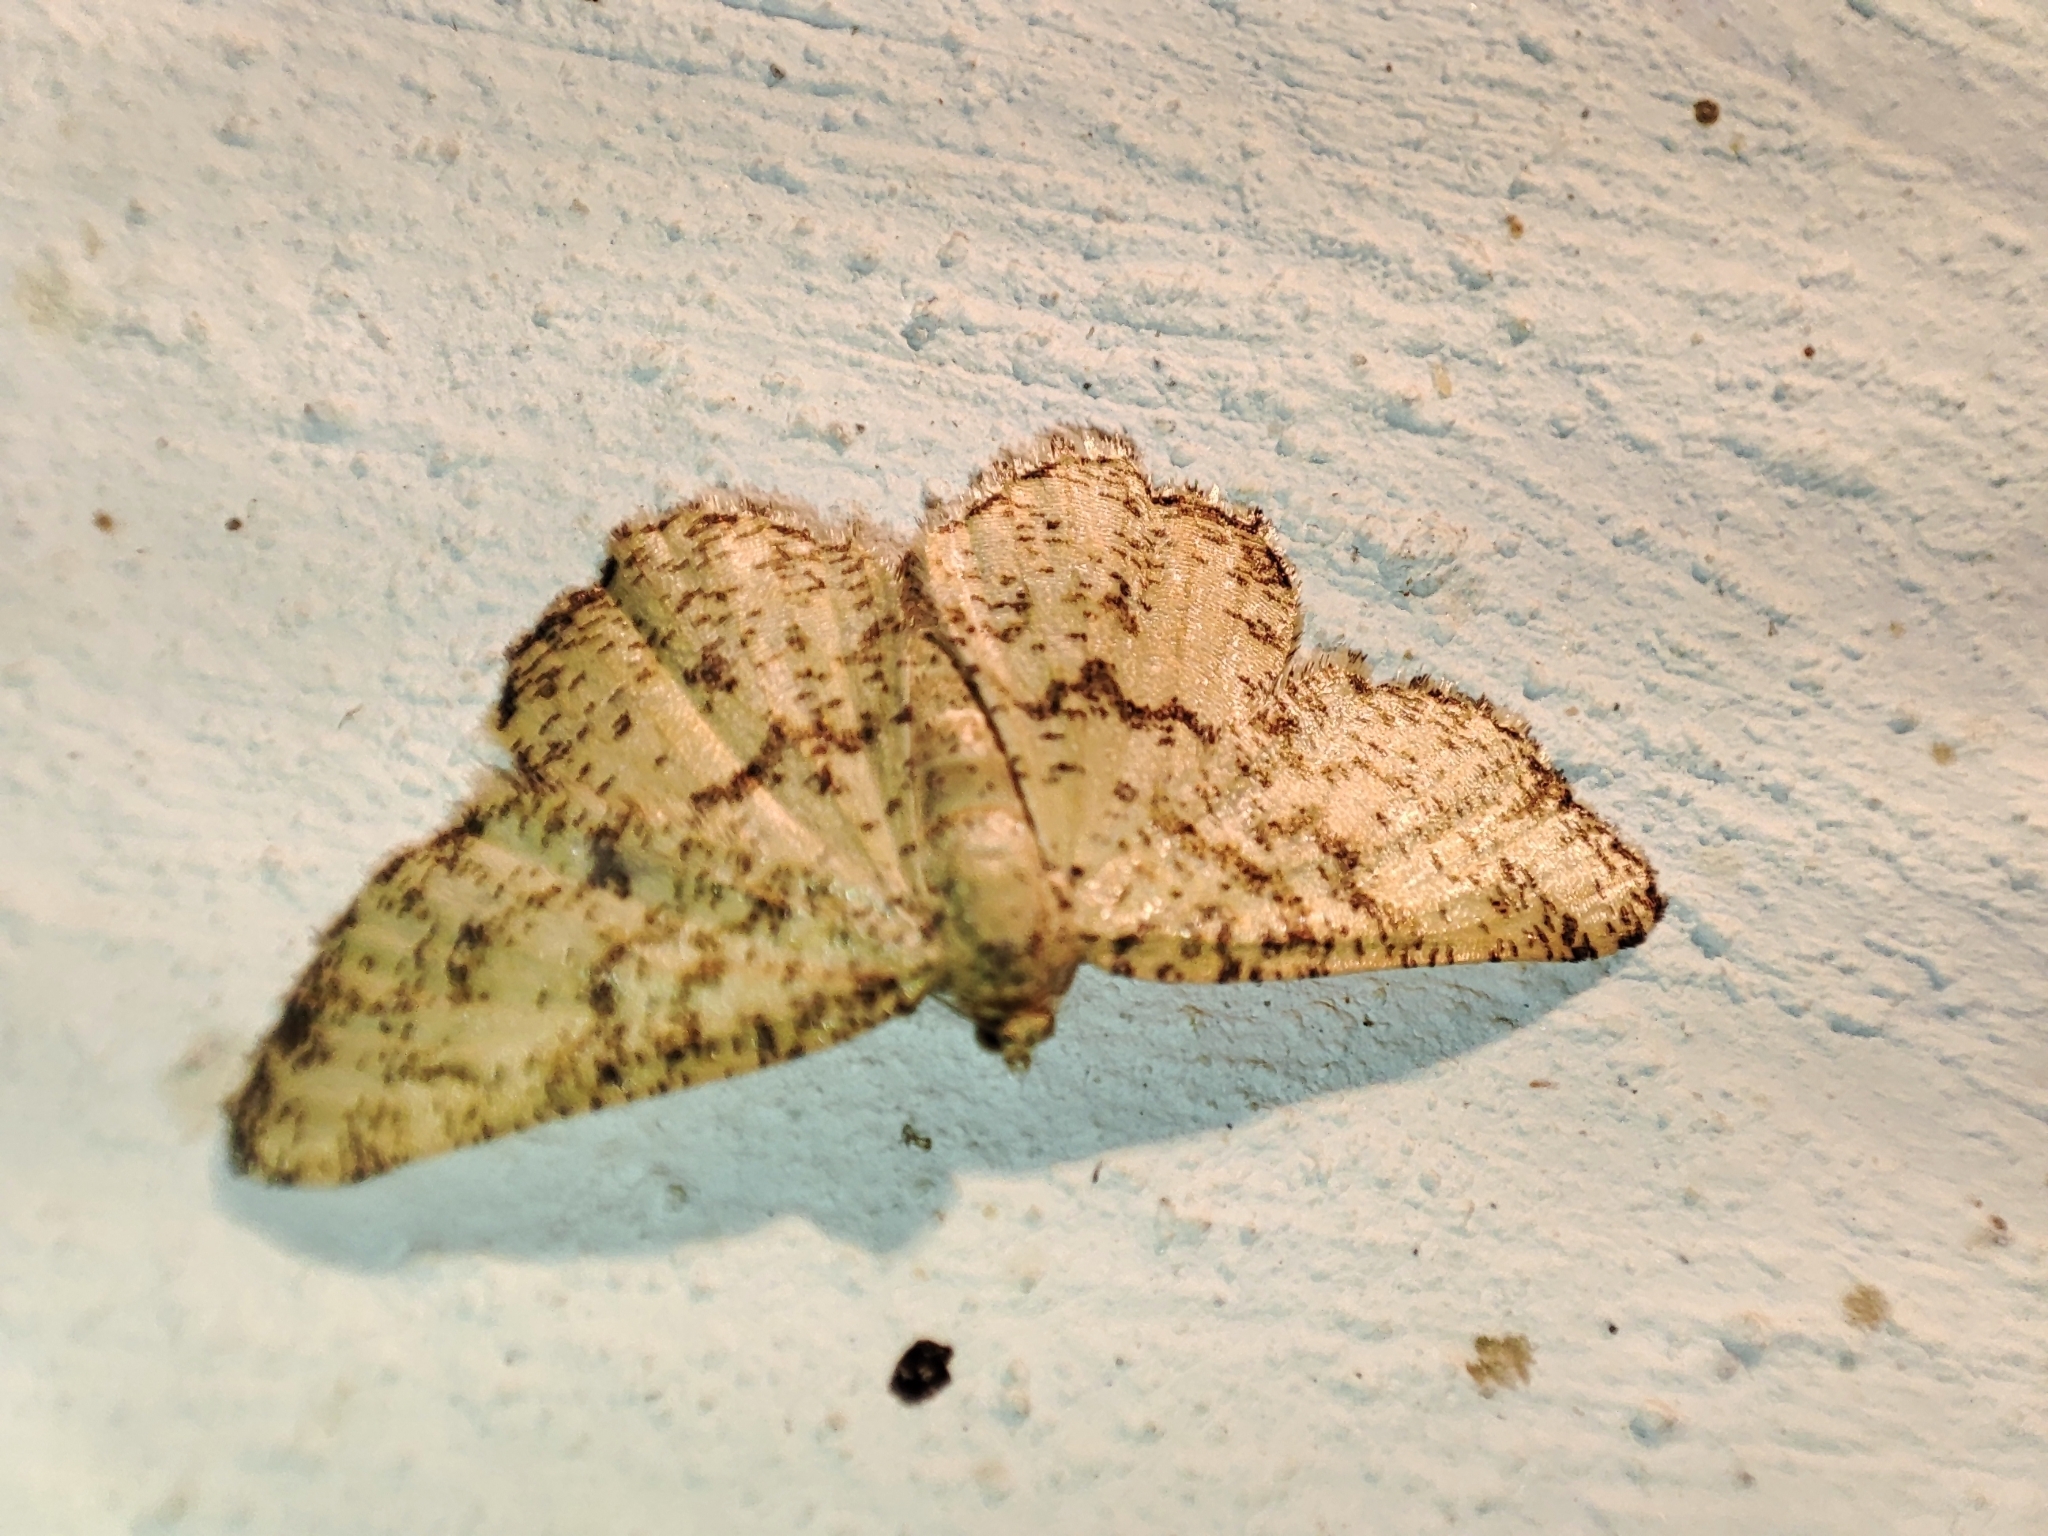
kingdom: Animalia
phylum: Arthropoda
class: Insecta
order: Lepidoptera
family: Geometridae
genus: Heliomata
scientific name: Heliomata glarearia
